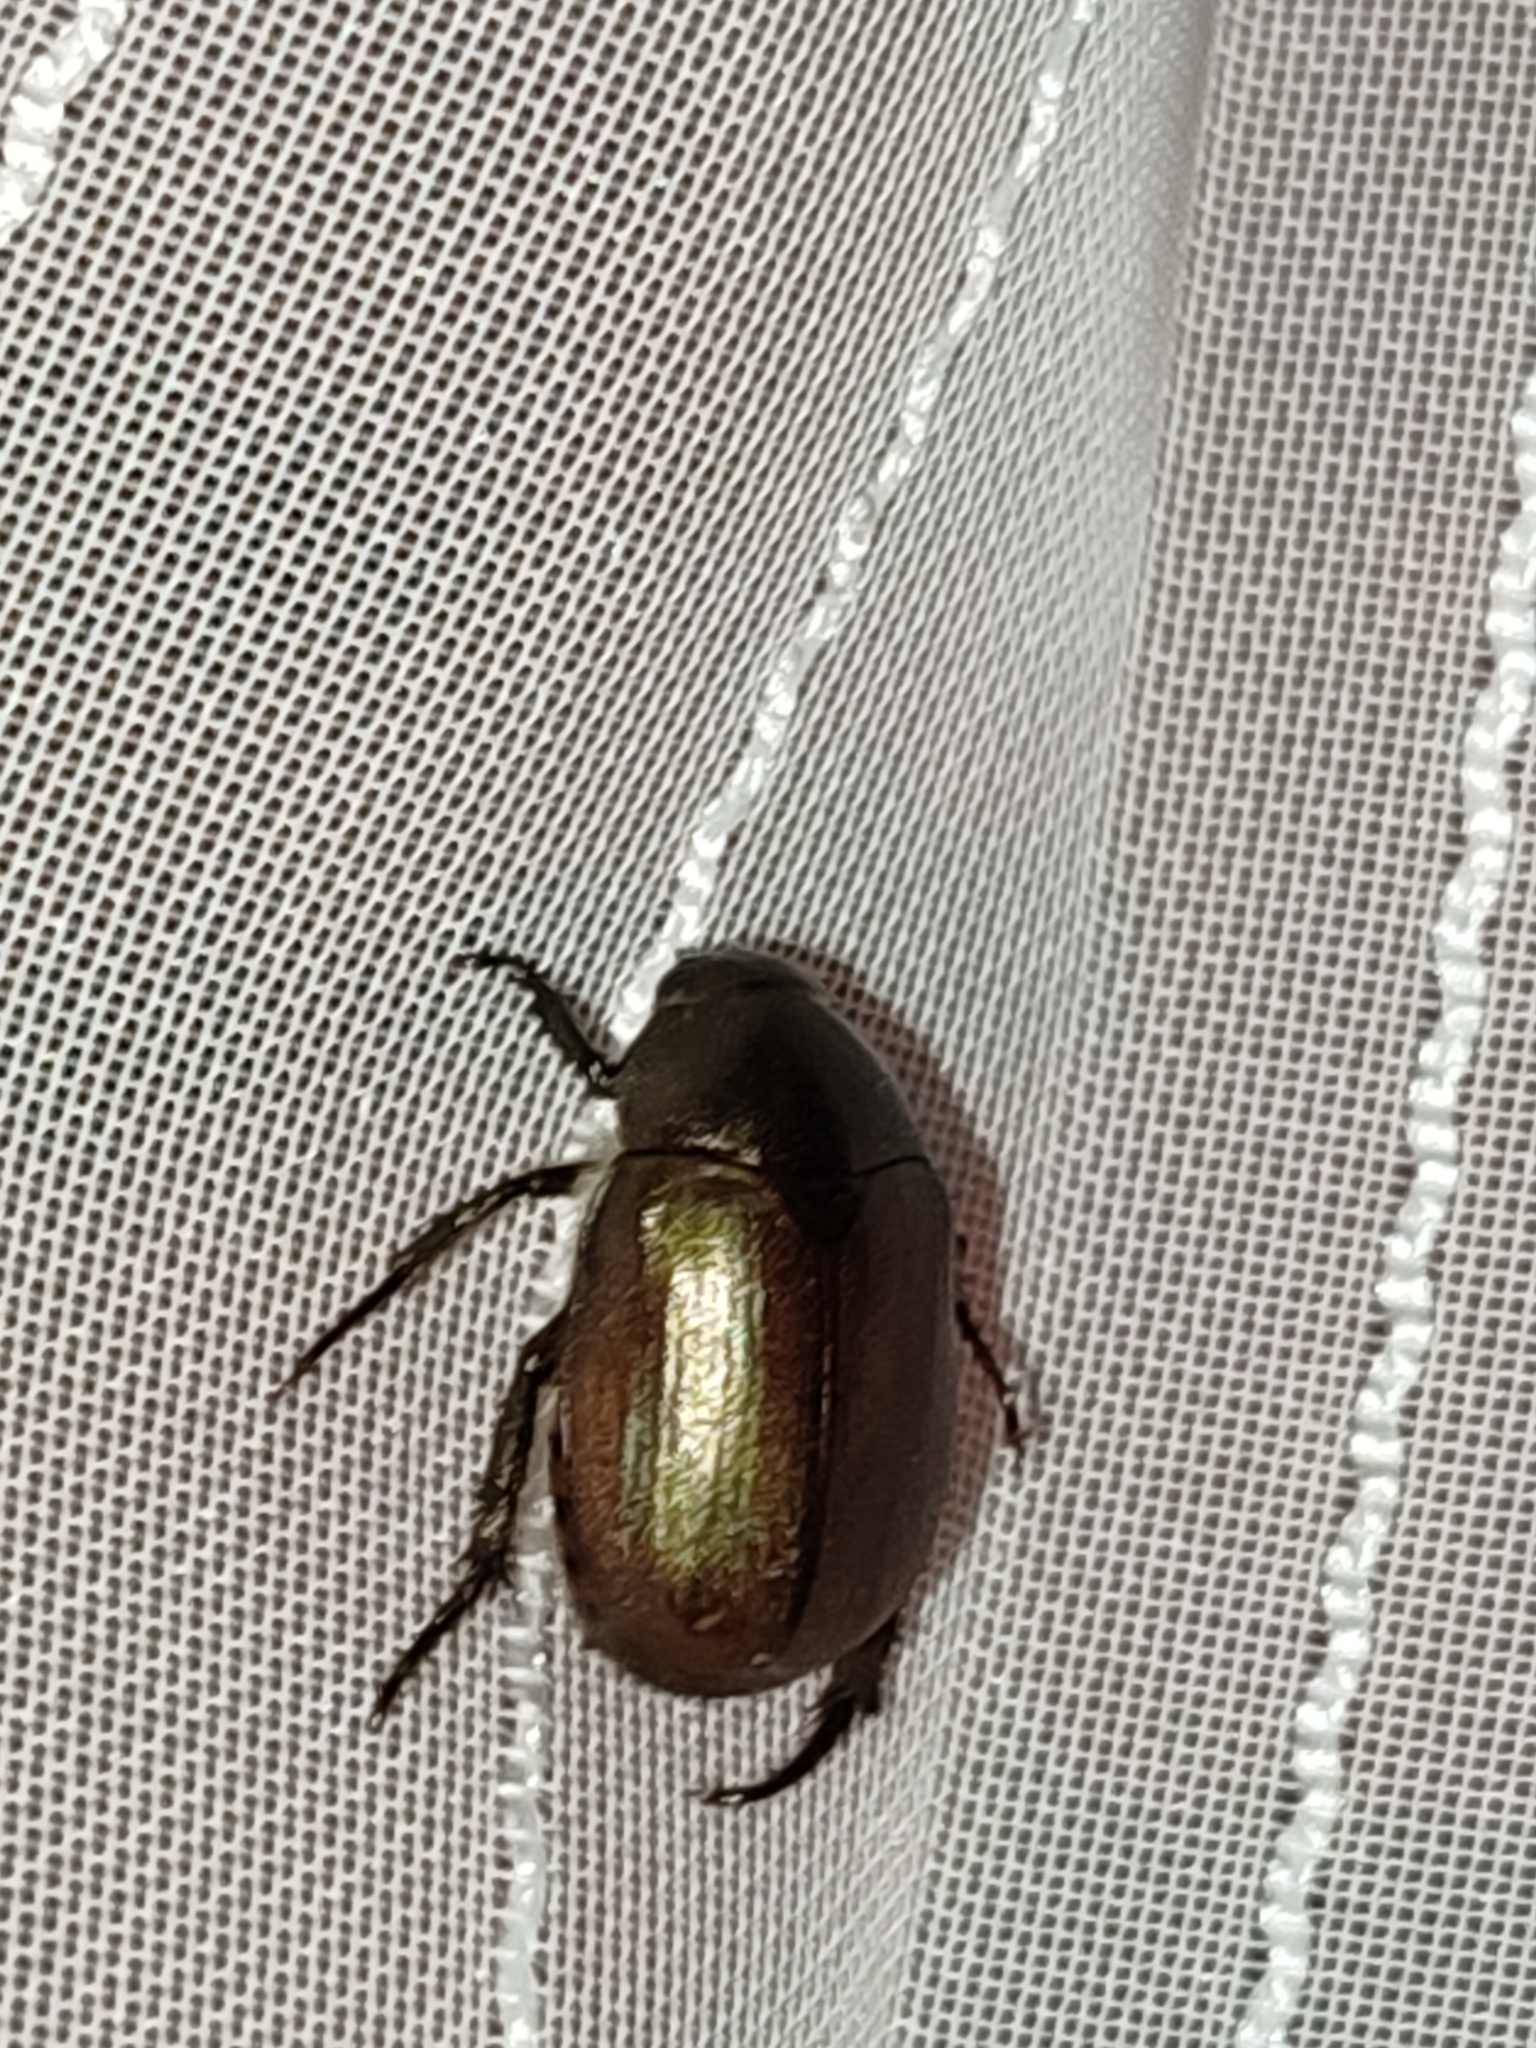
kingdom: Animalia
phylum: Arthropoda
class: Insecta
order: Coleoptera
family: Scarabaeidae
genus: Anomala
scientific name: Anomala obsoleta
